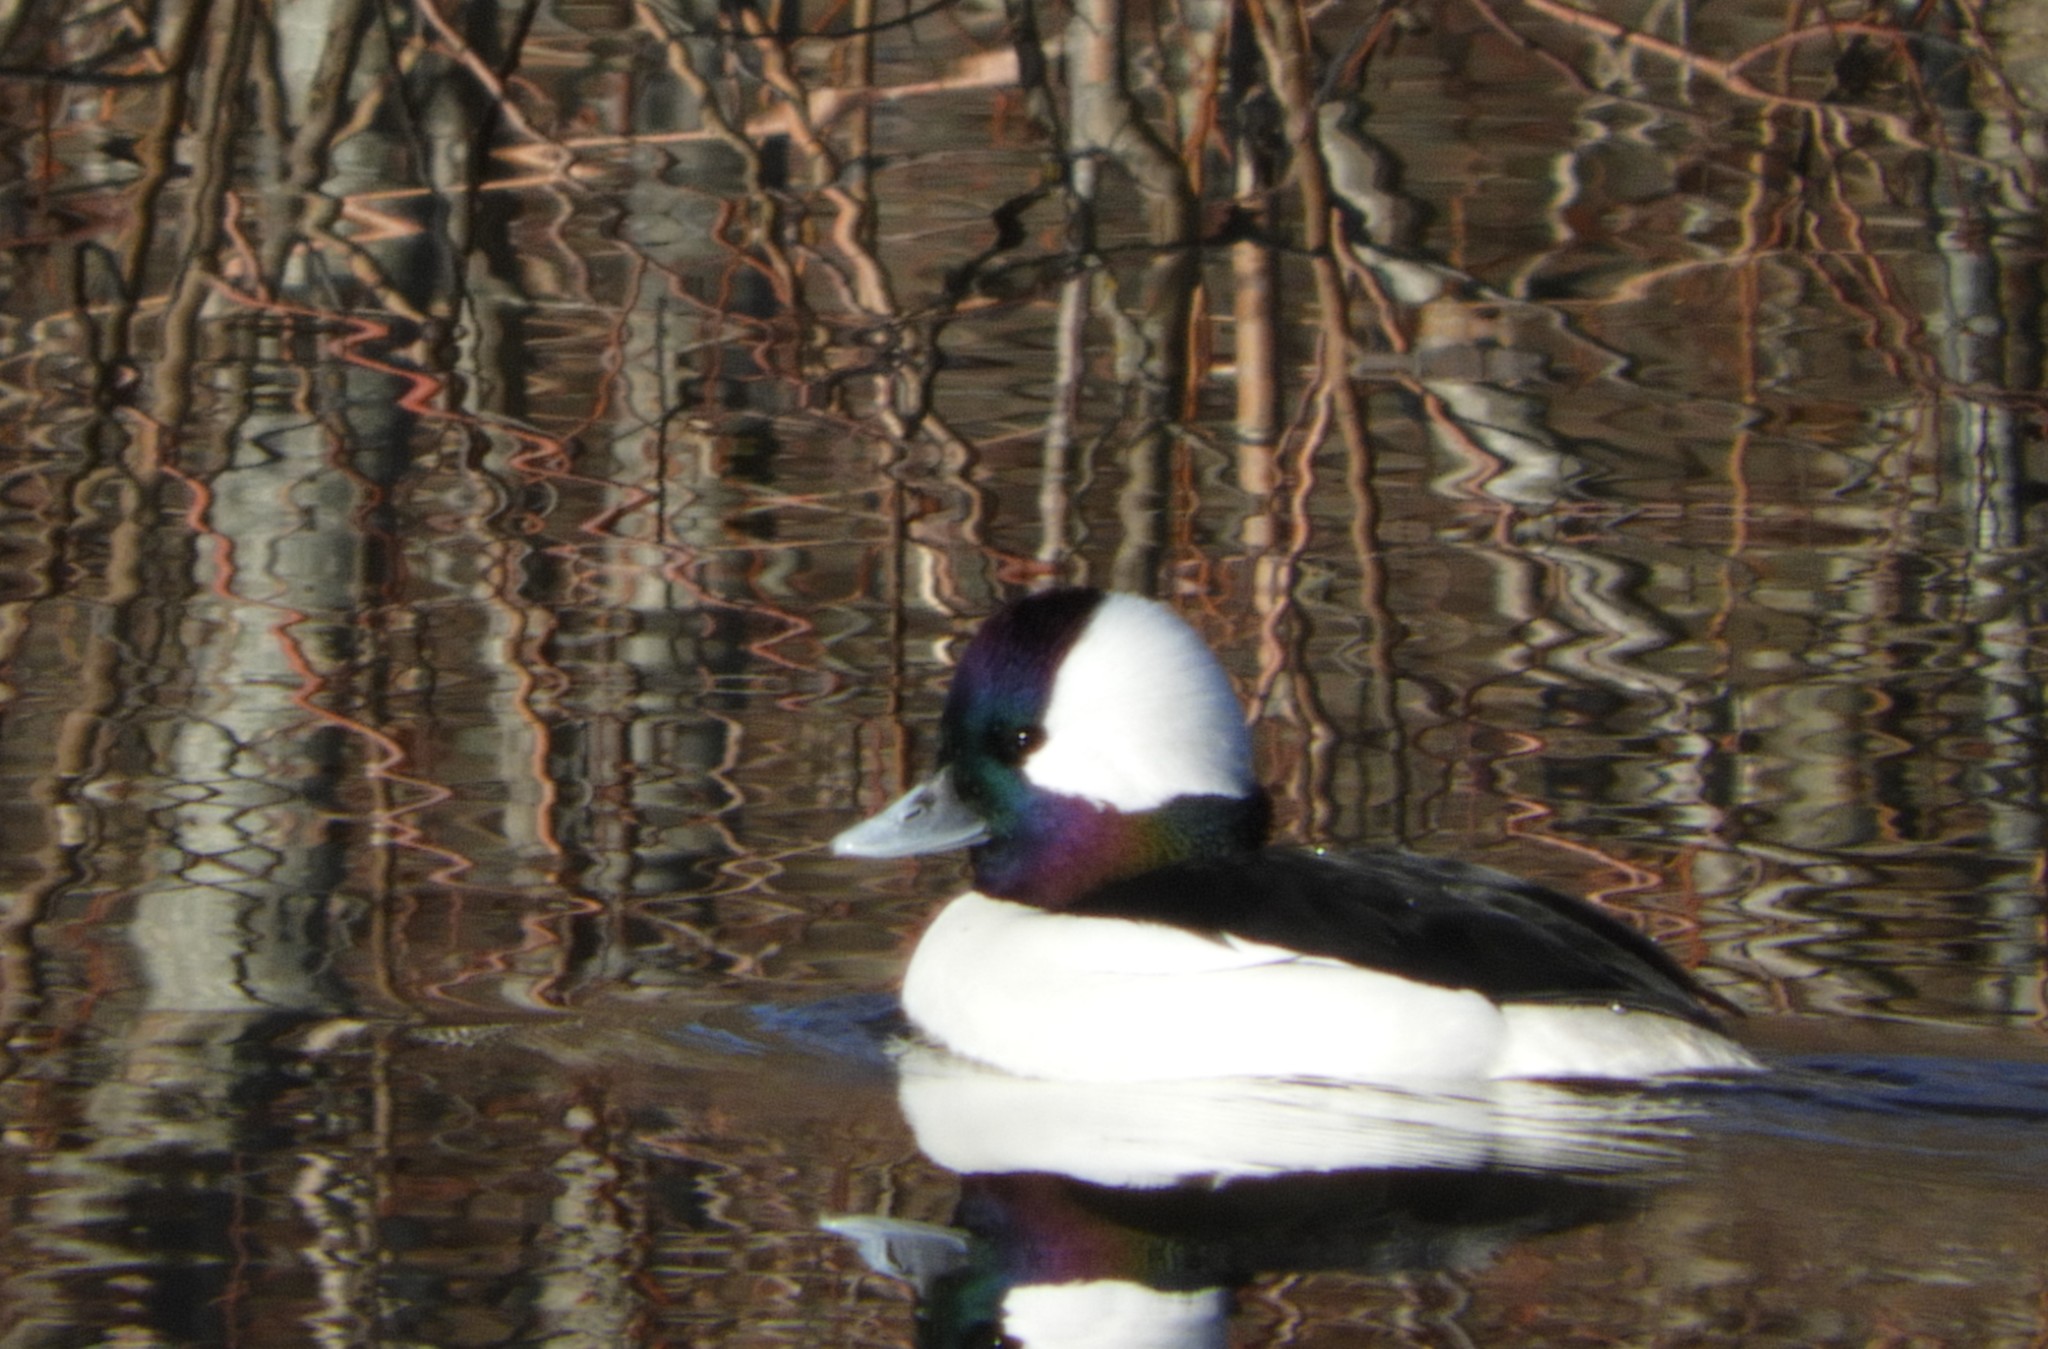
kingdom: Animalia
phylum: Chordata
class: Aves
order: Anseriformes
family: Anatidae
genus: Bucephala
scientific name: Bucephala albeola
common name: Bufflehead
